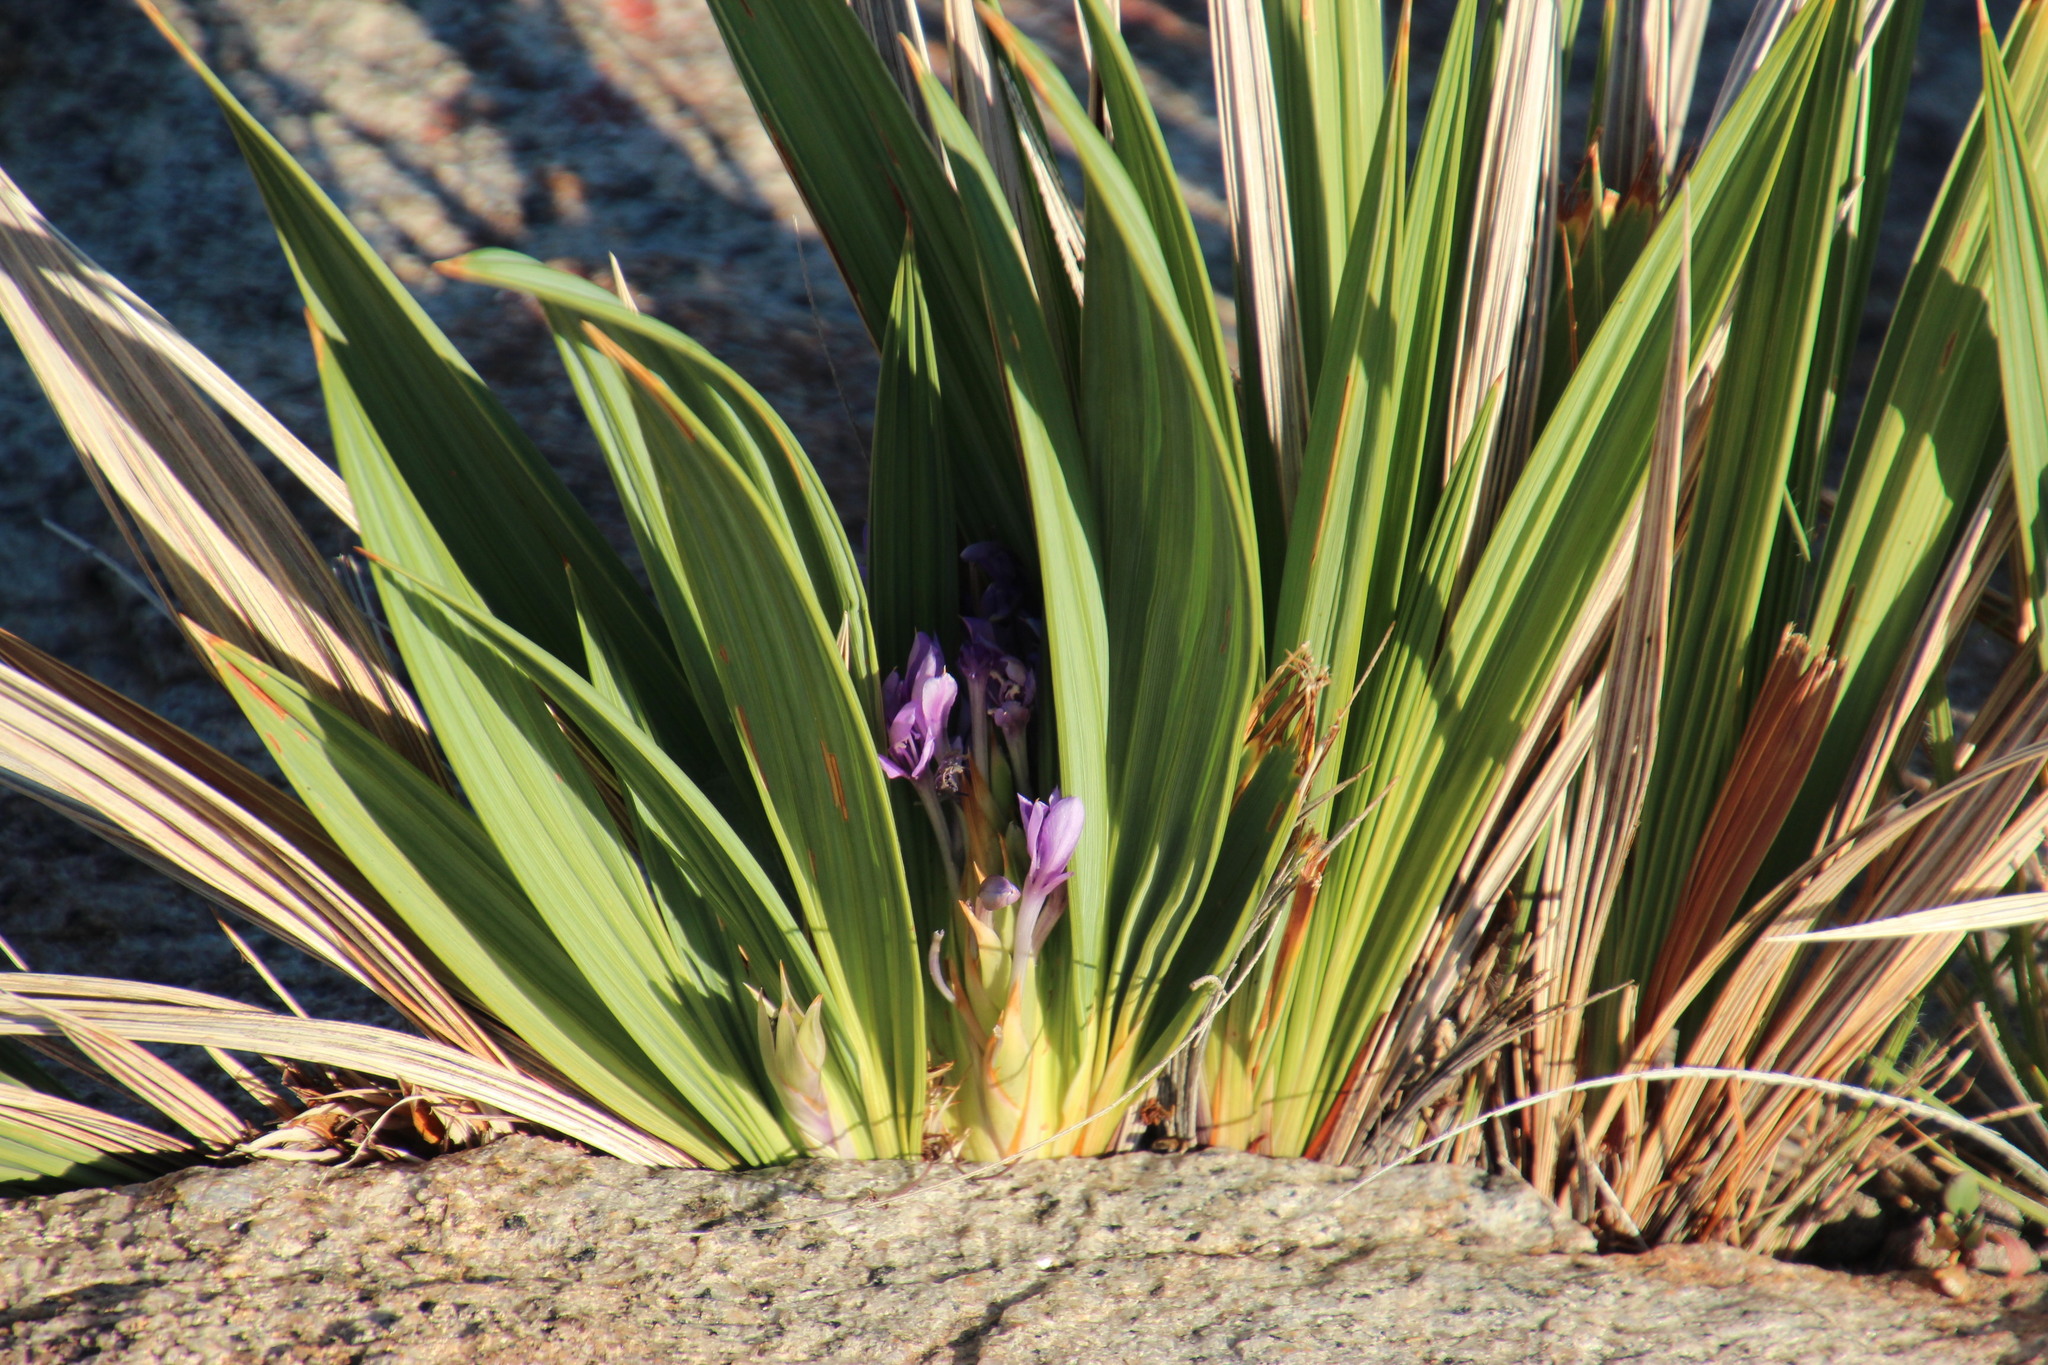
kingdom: Plantae
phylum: Tracheophyta
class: Liliopsida
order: Asparagales
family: Iridaceae
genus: Babiana
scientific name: Babiana dregei
